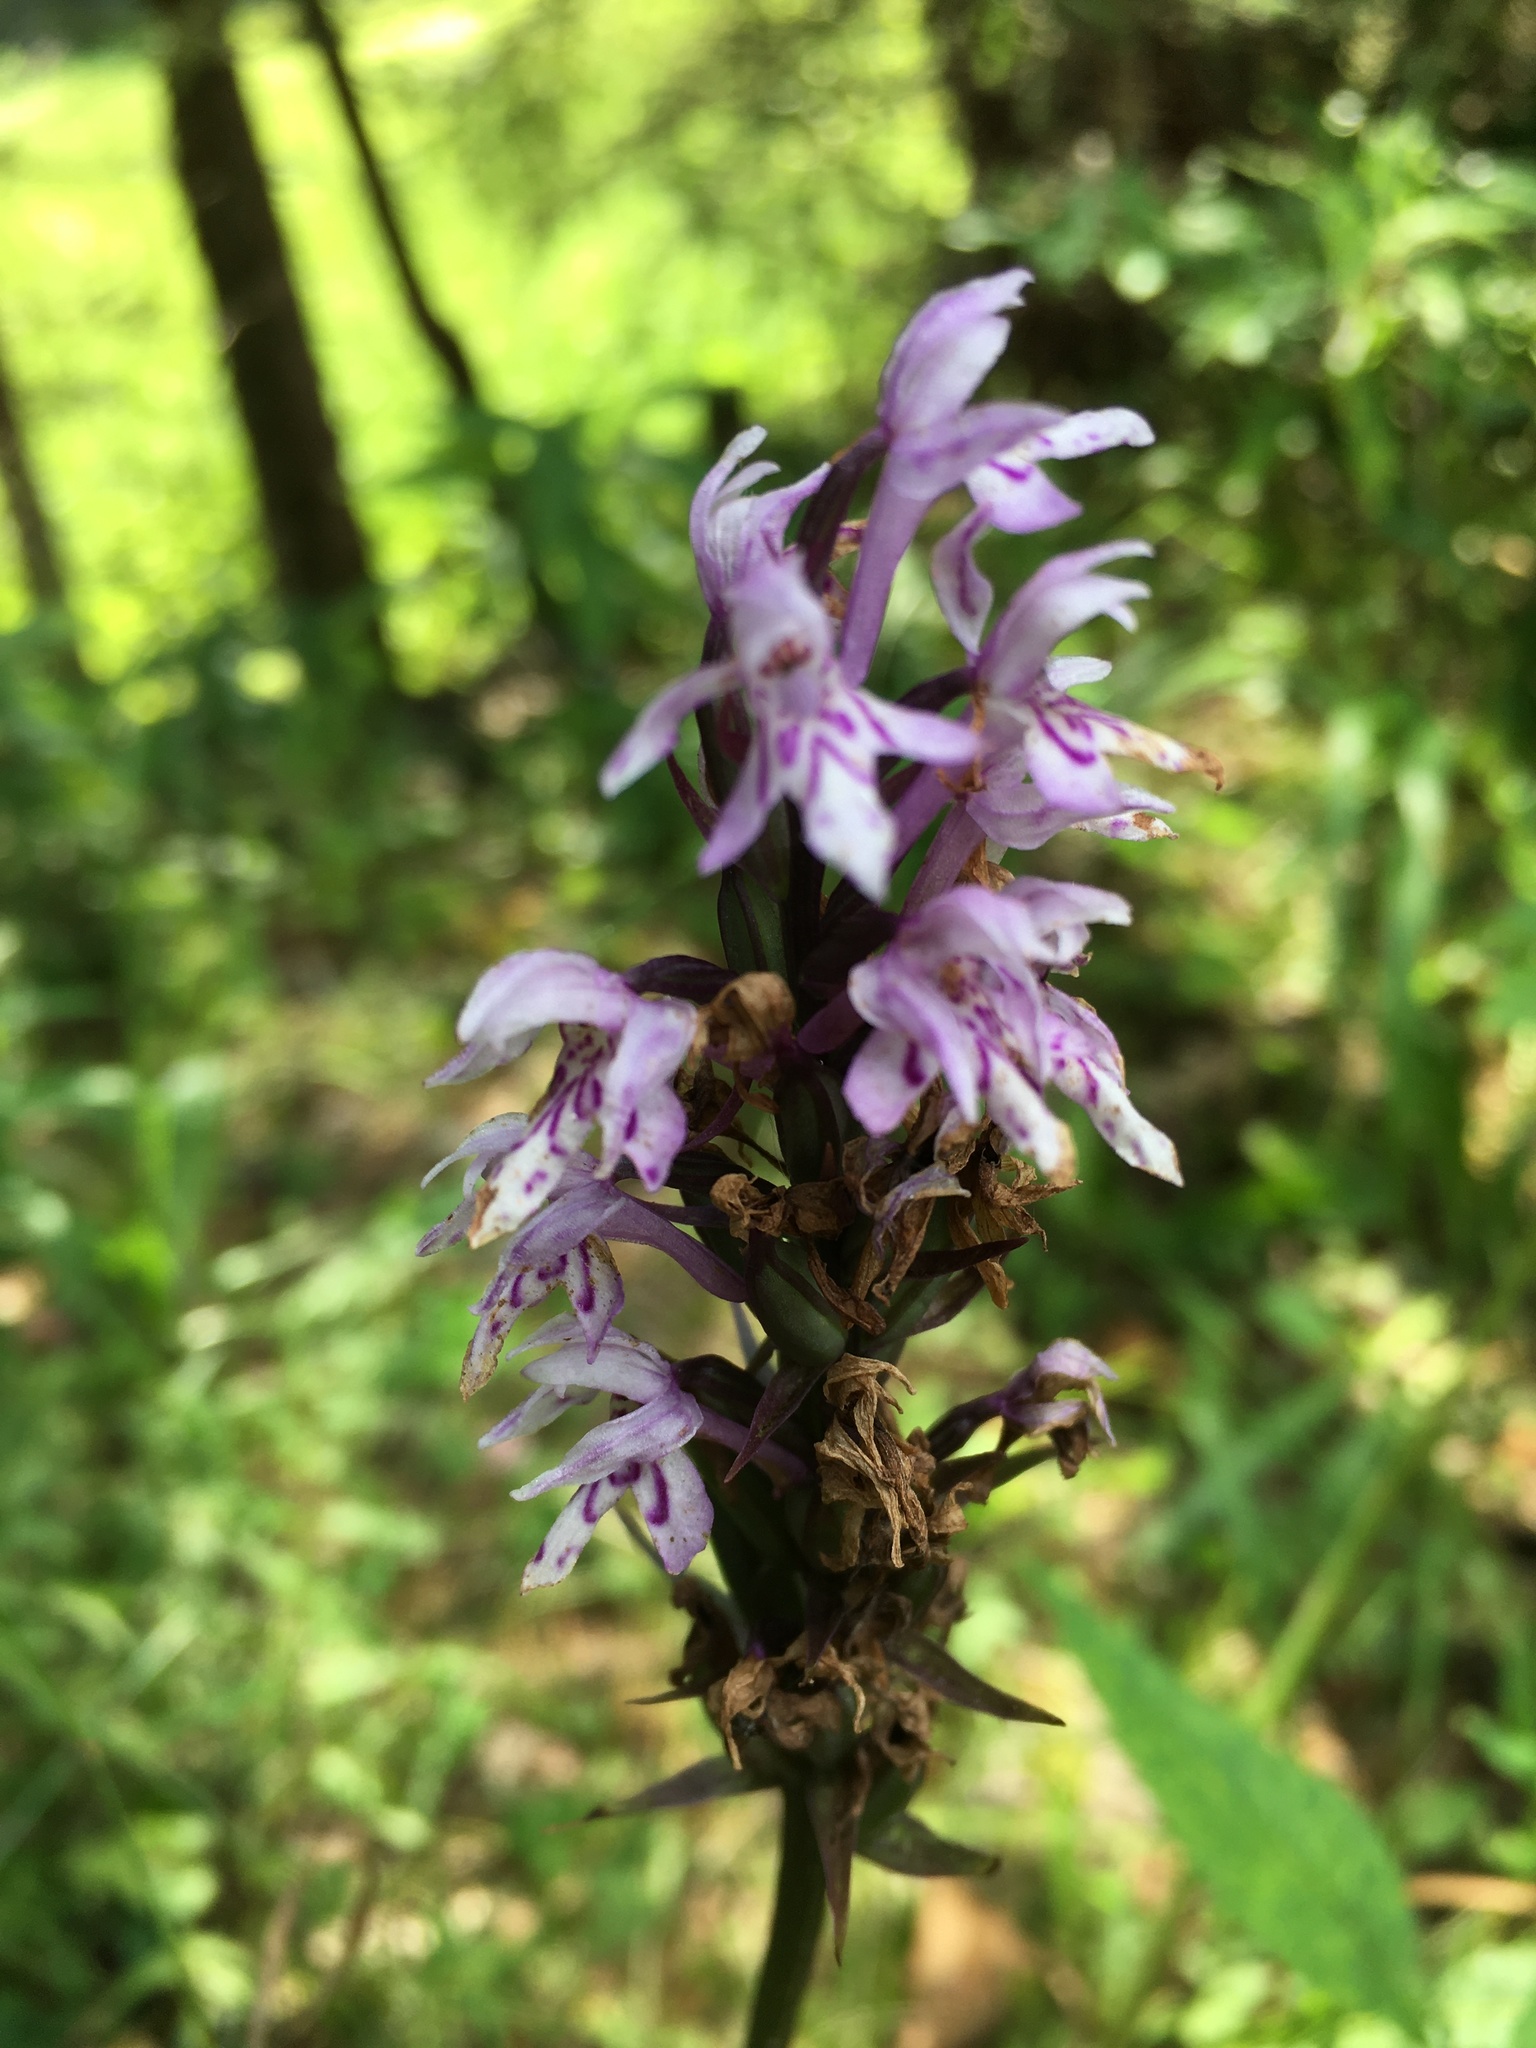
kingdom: Plantae
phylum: Tracheophyta
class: Liliopsida
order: Asparagales
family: Orchidaceae
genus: Dactylorhiza
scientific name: Dactylorhiza maculata
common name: Heath spotted-orchid
